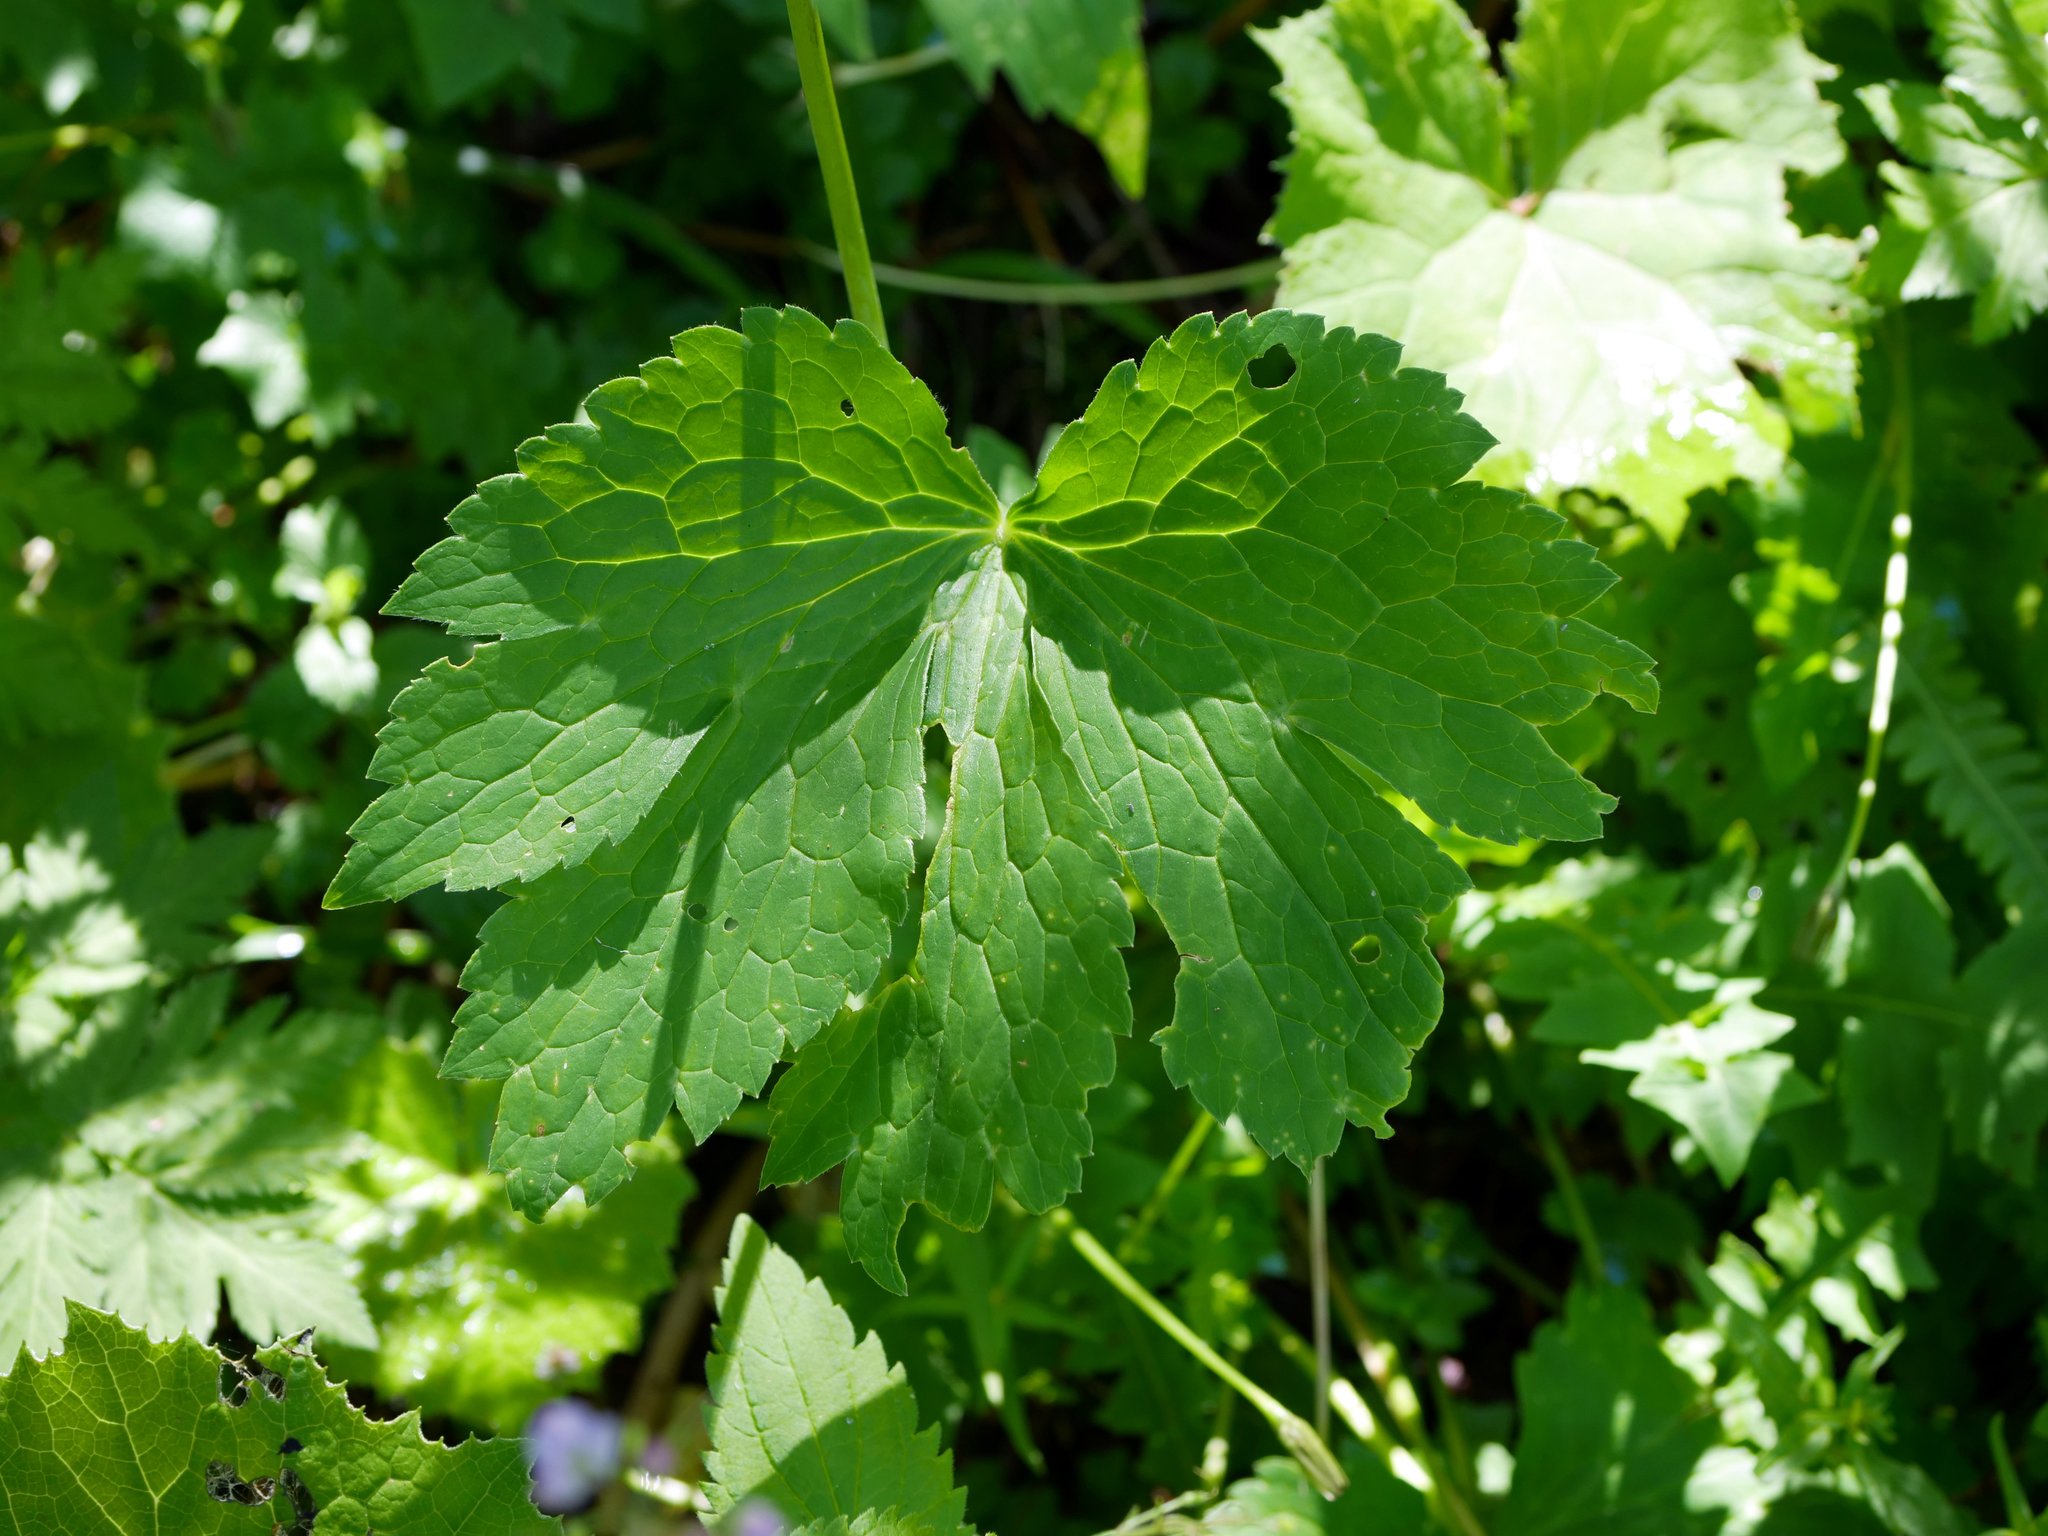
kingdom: Plantae
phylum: Tracheophyta
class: Magnoliopsida
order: Ranunculales
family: Ranunculaceae
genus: Ranunculus
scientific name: Ranunculus platanifolius
